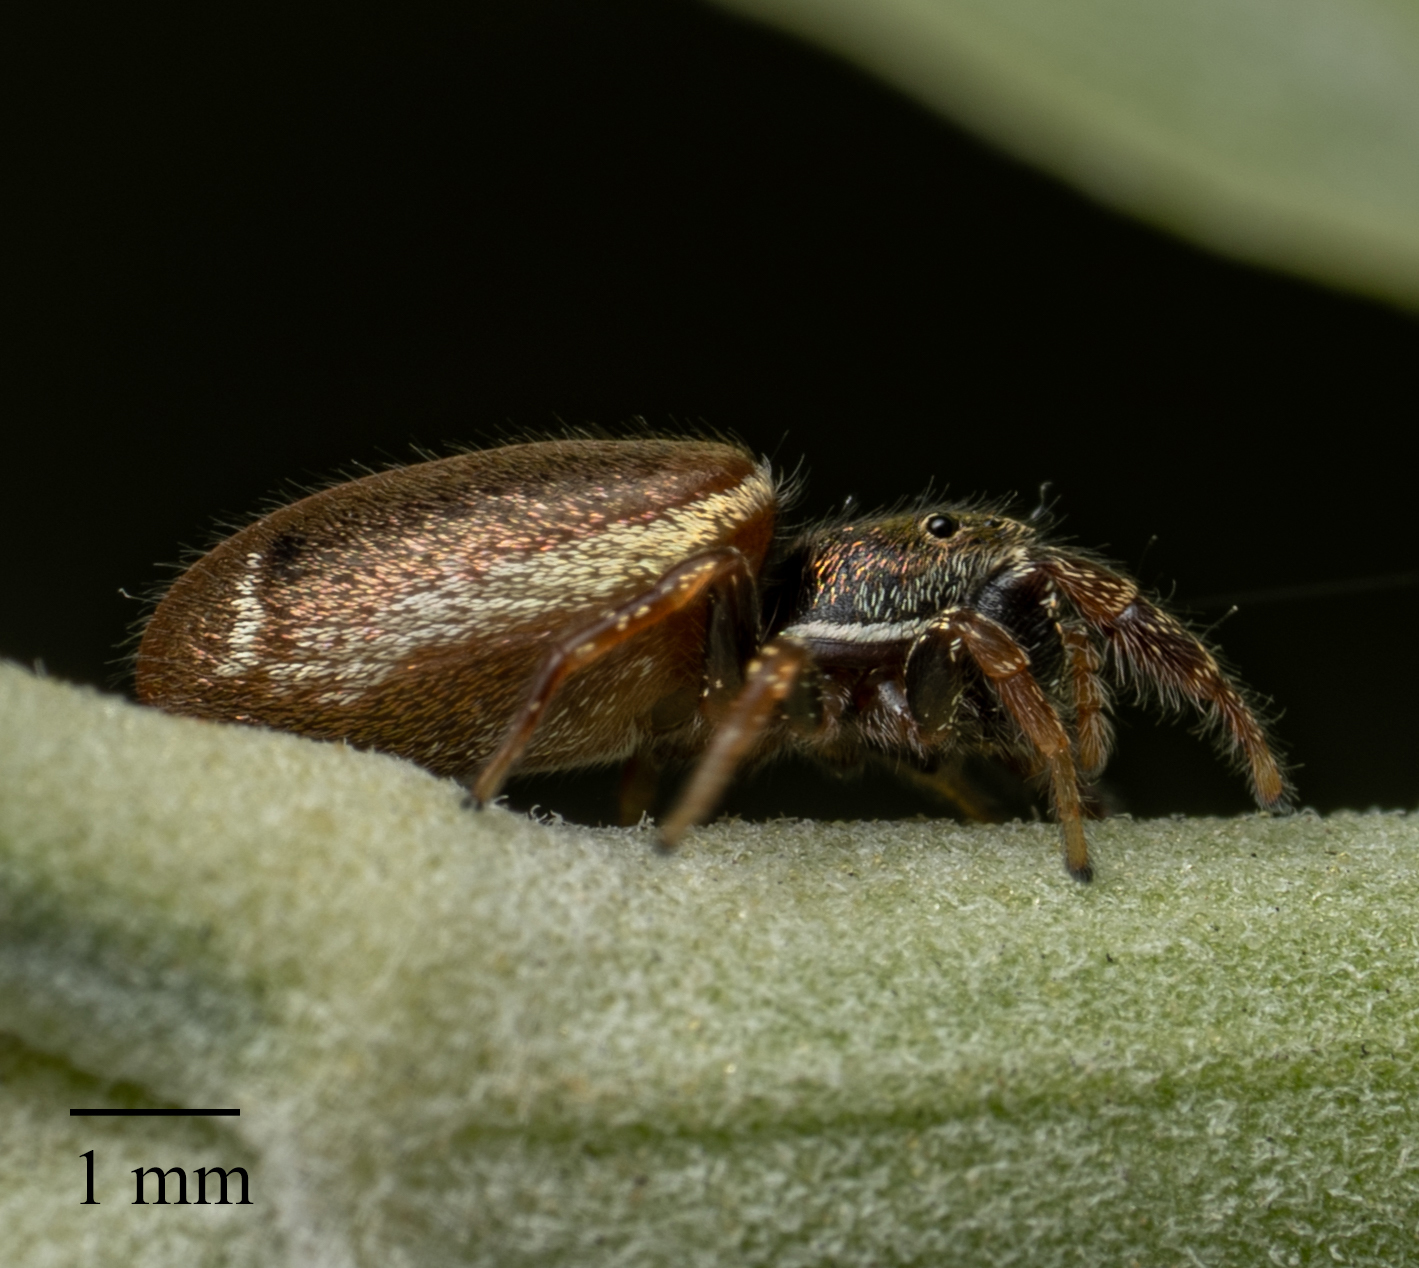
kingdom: Animalia
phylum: Arthropoda
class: Arachnida
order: Araneae
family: Salticidae
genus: Sassacus
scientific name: Sassacus vitis
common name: Jumping spiders
